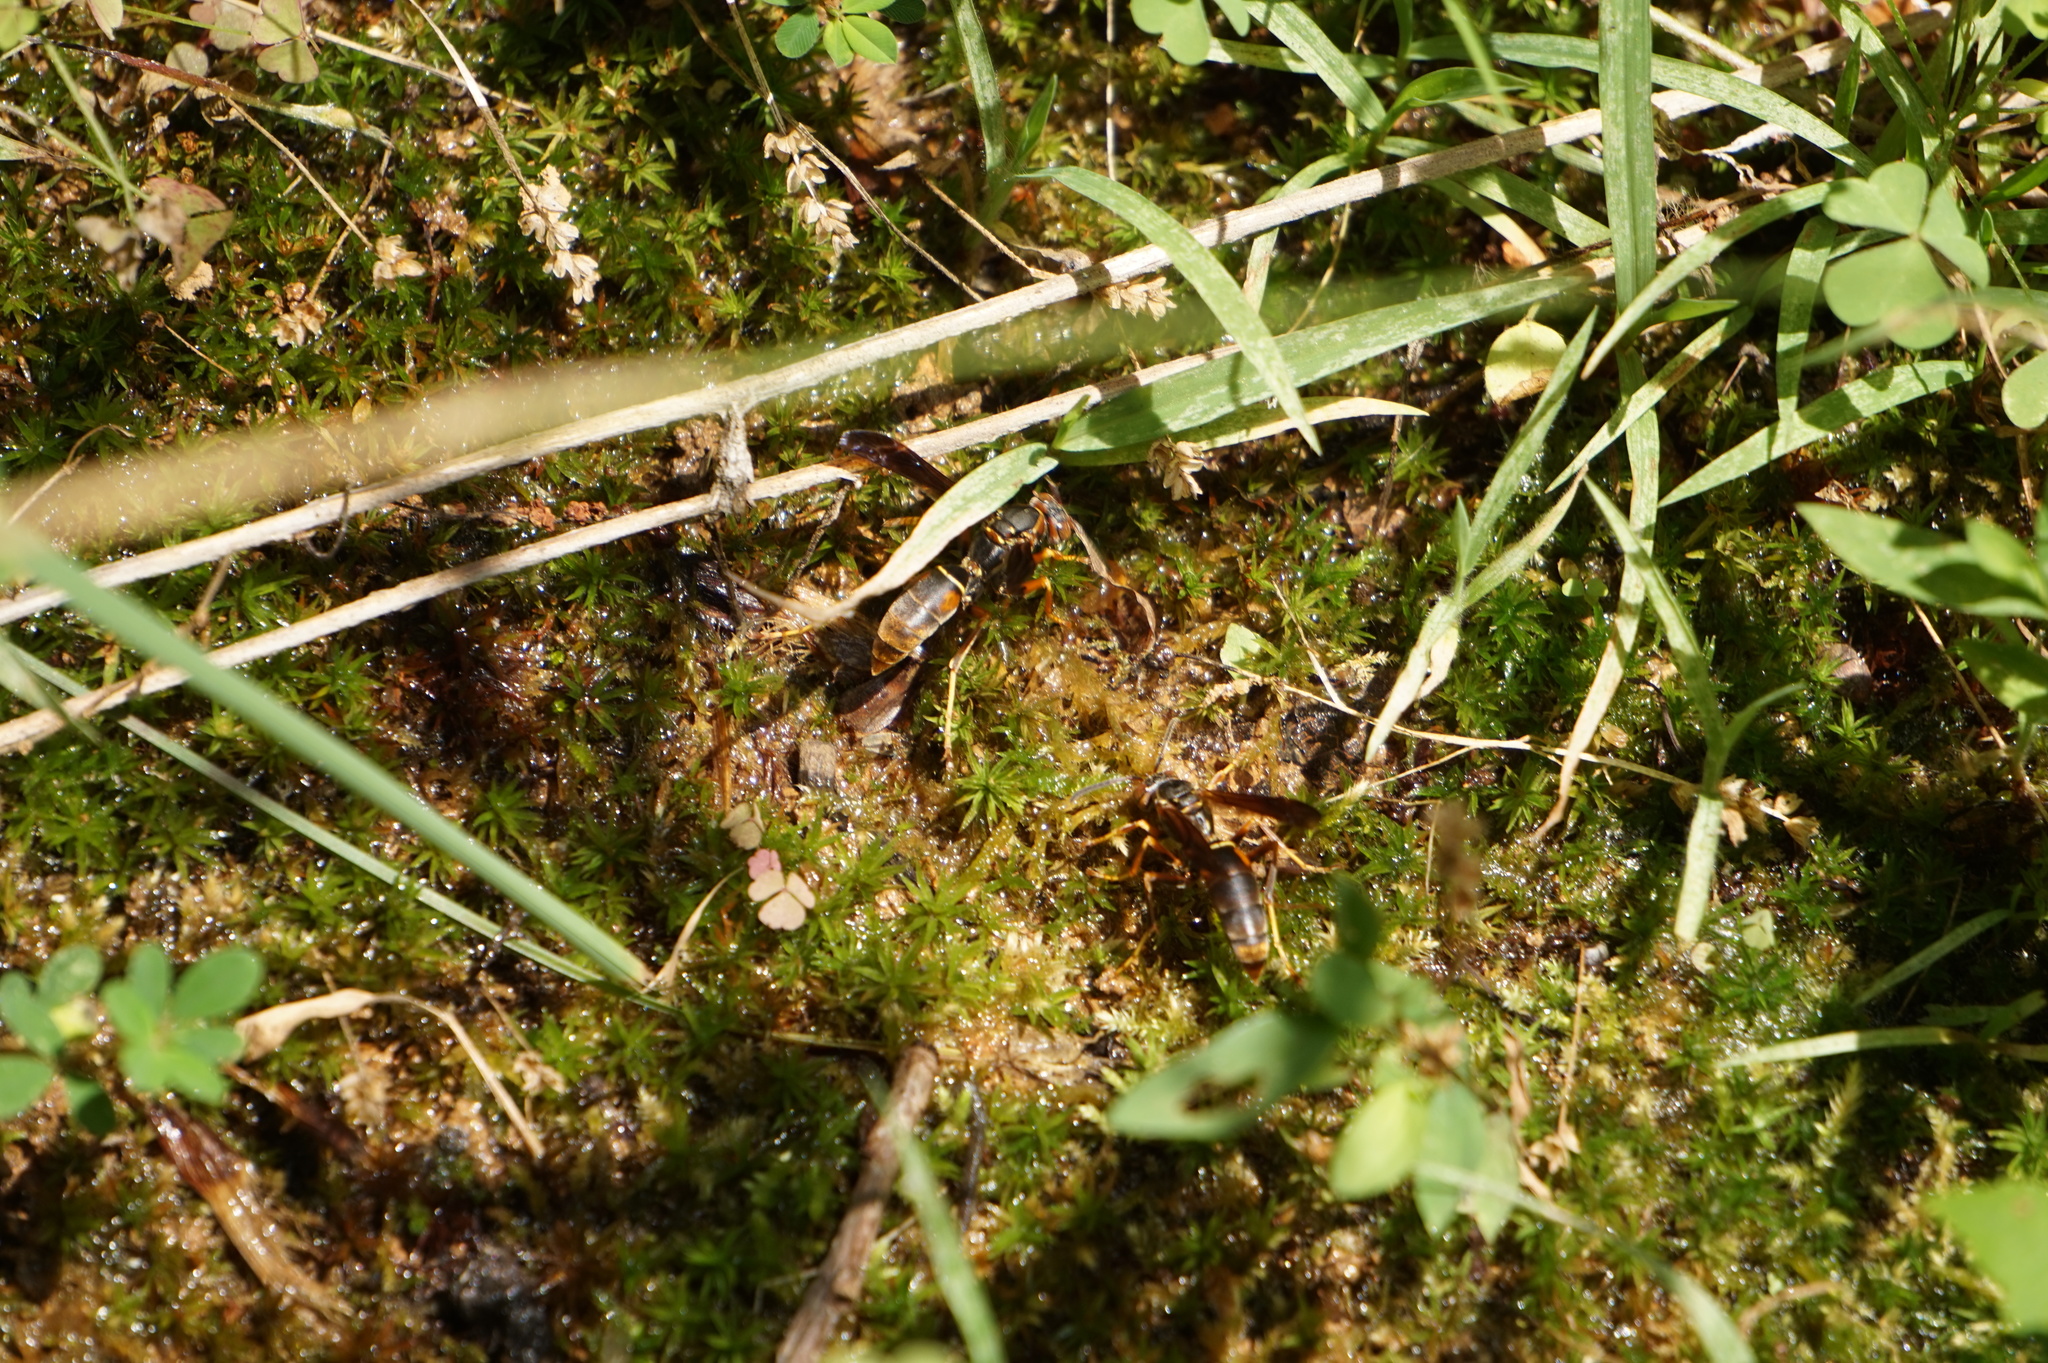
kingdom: Animalia
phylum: Arthropoda
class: Insecta
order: Hymenoptera
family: Eumenidae
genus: Polistes
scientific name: Polistes fuscatus
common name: Dark paper wasp
